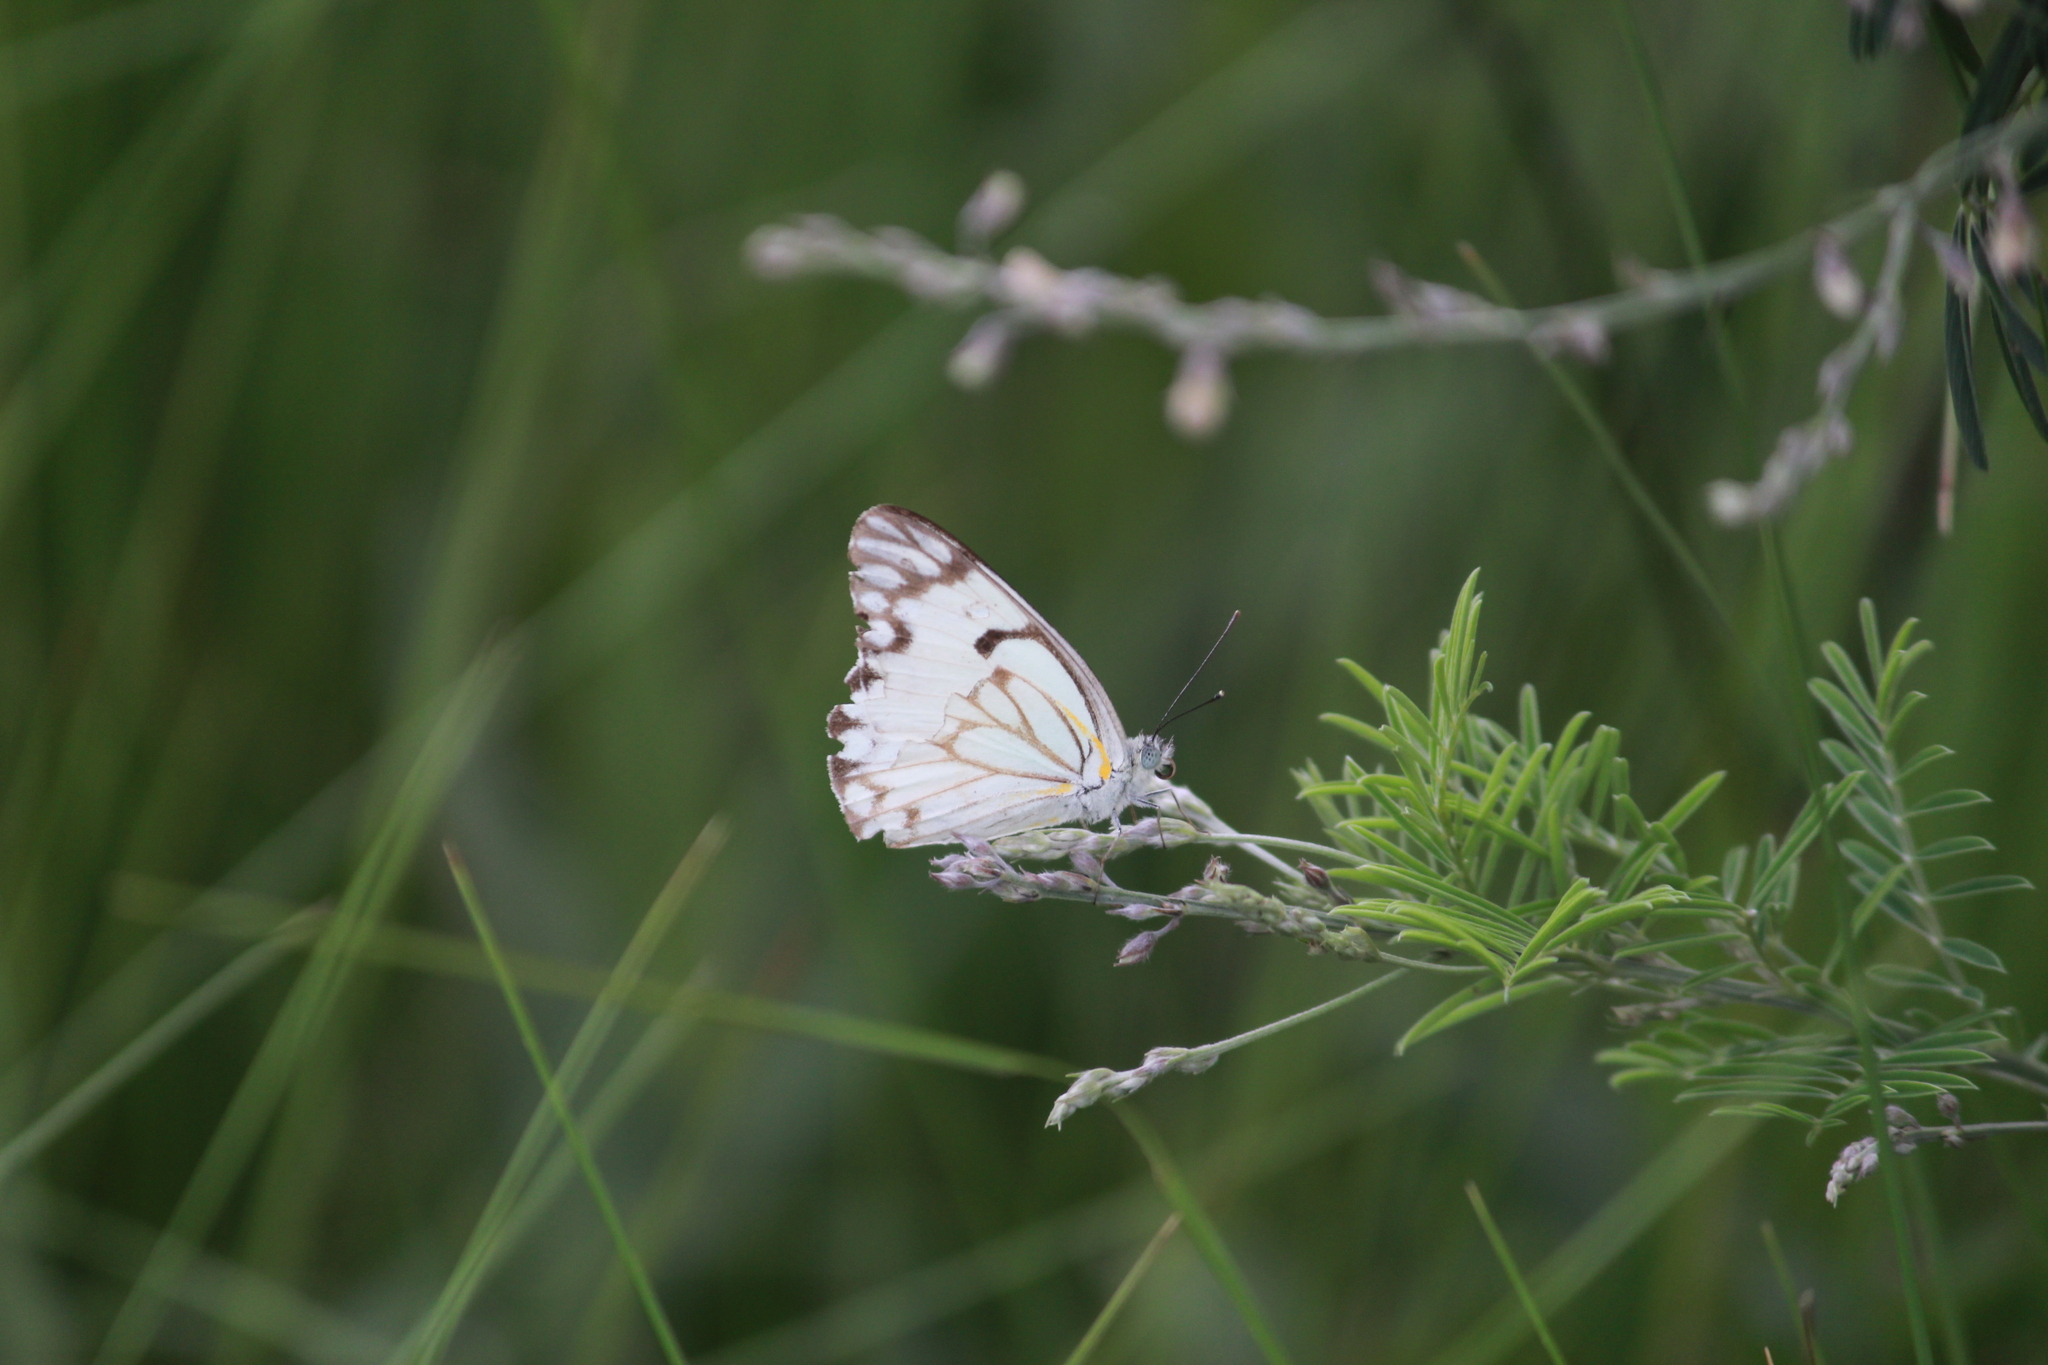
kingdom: Animalia
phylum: Arthropoda
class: Insecta
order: Lepidoptera
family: Pieridae
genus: Belenois
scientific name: Belenois aurota
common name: Brown-veined white
